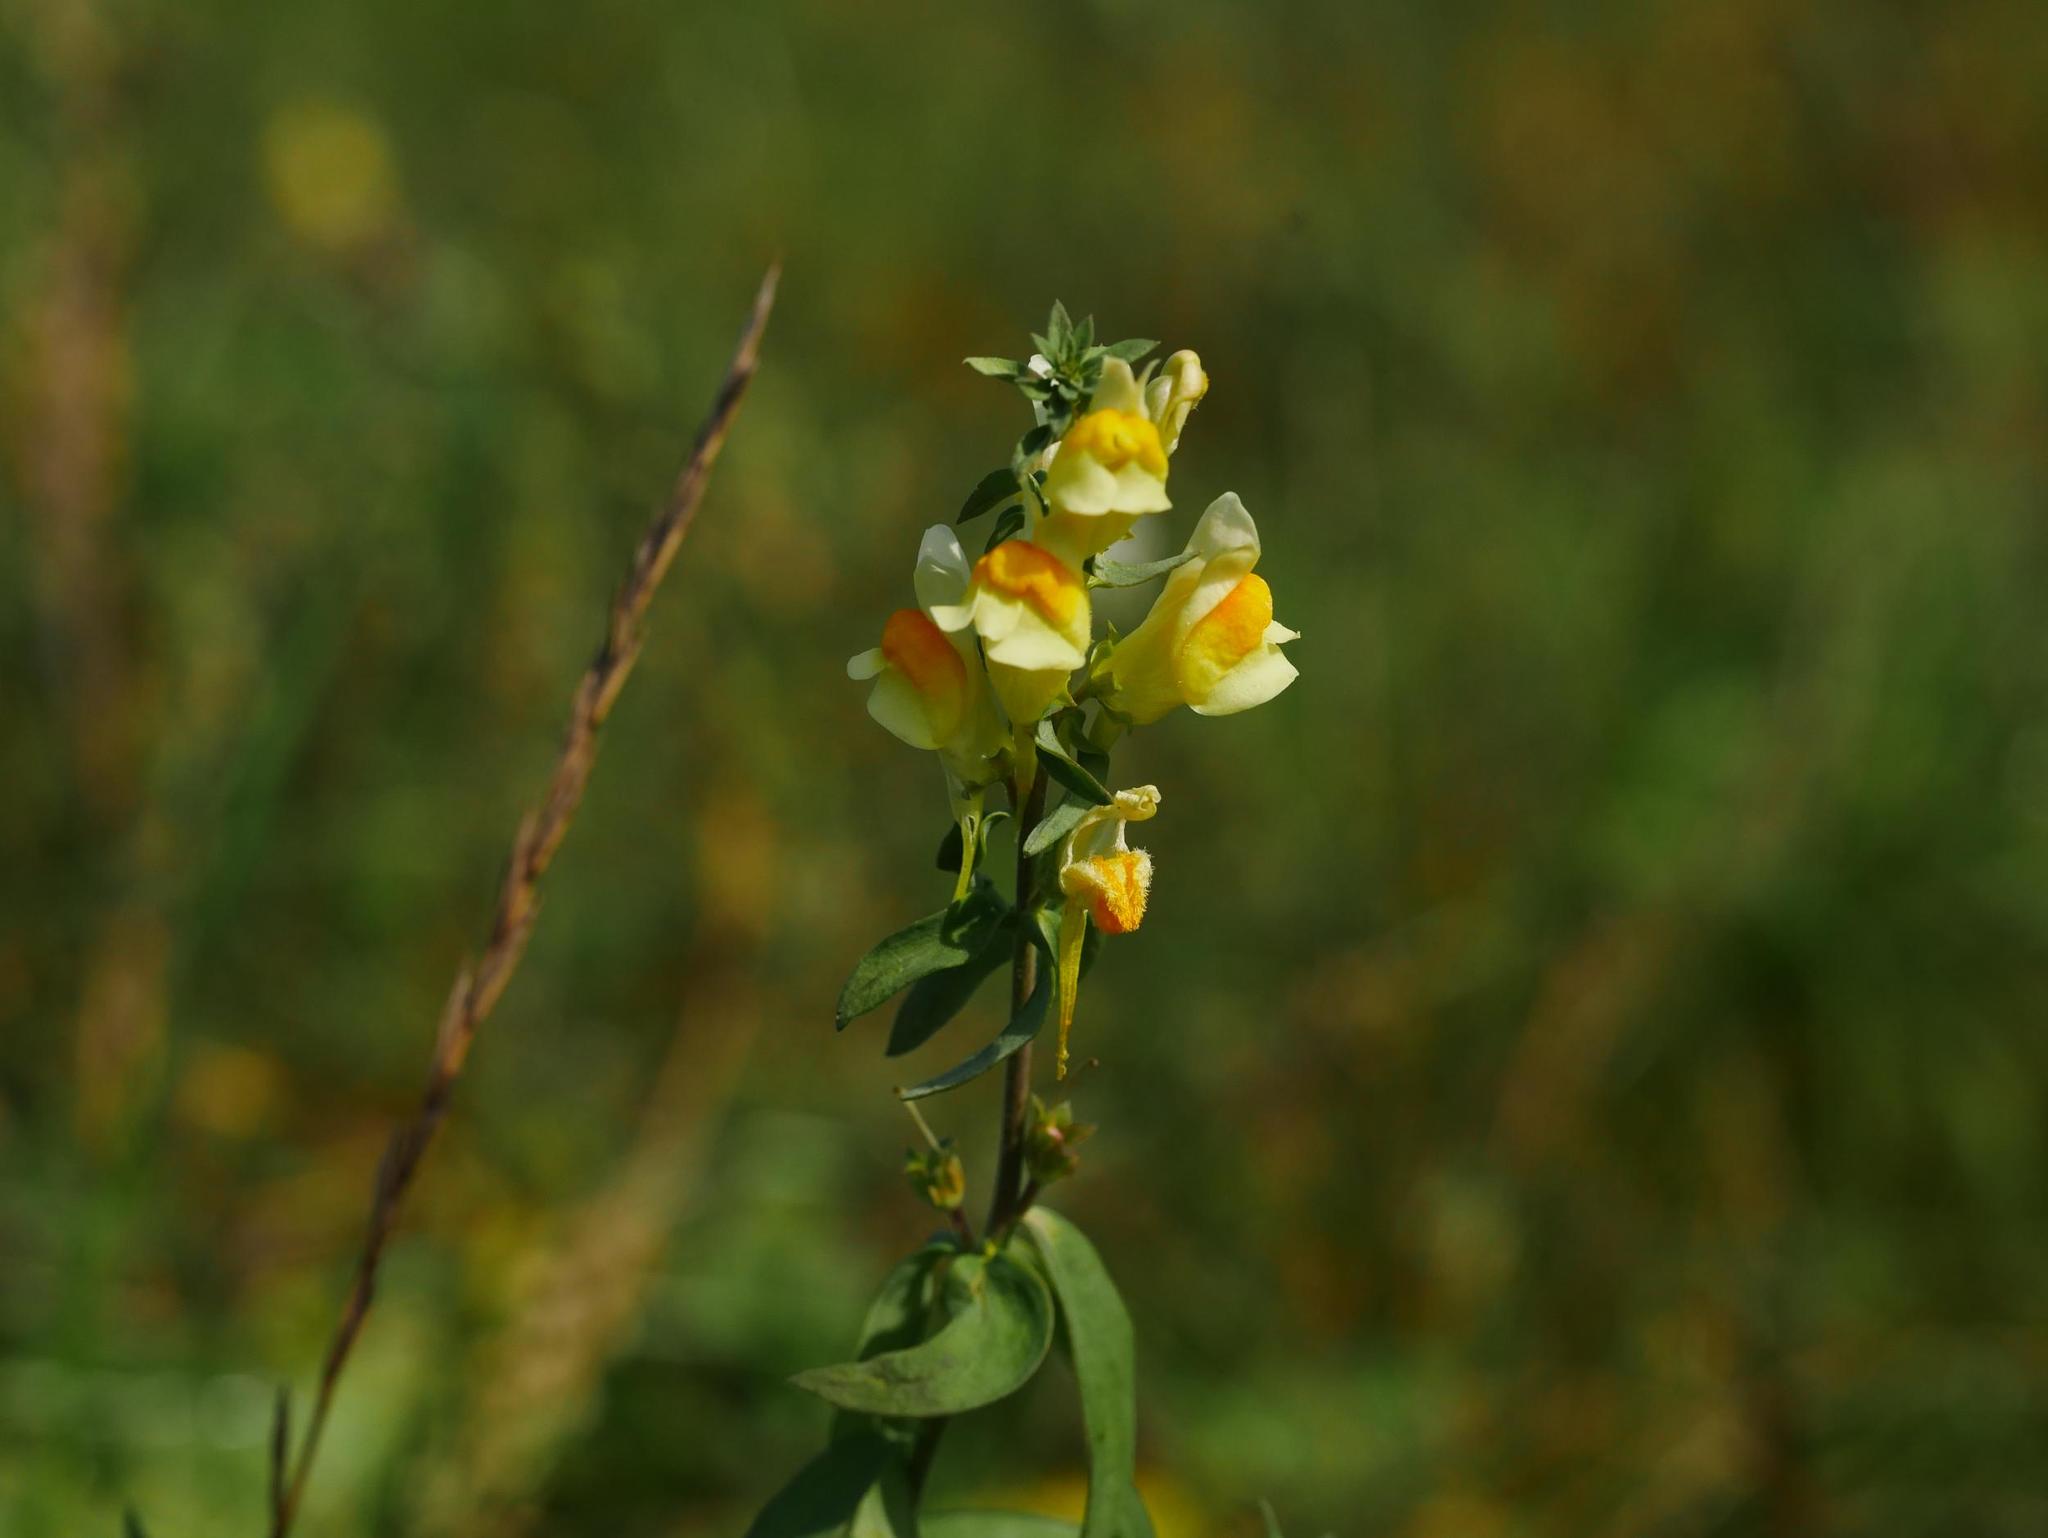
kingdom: Plantae
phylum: Tracheophyta
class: Magnoliopsida
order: Lamiales
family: Plantaginaceae
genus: Linaria
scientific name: Linaria vulgaris
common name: Butter and eggs
